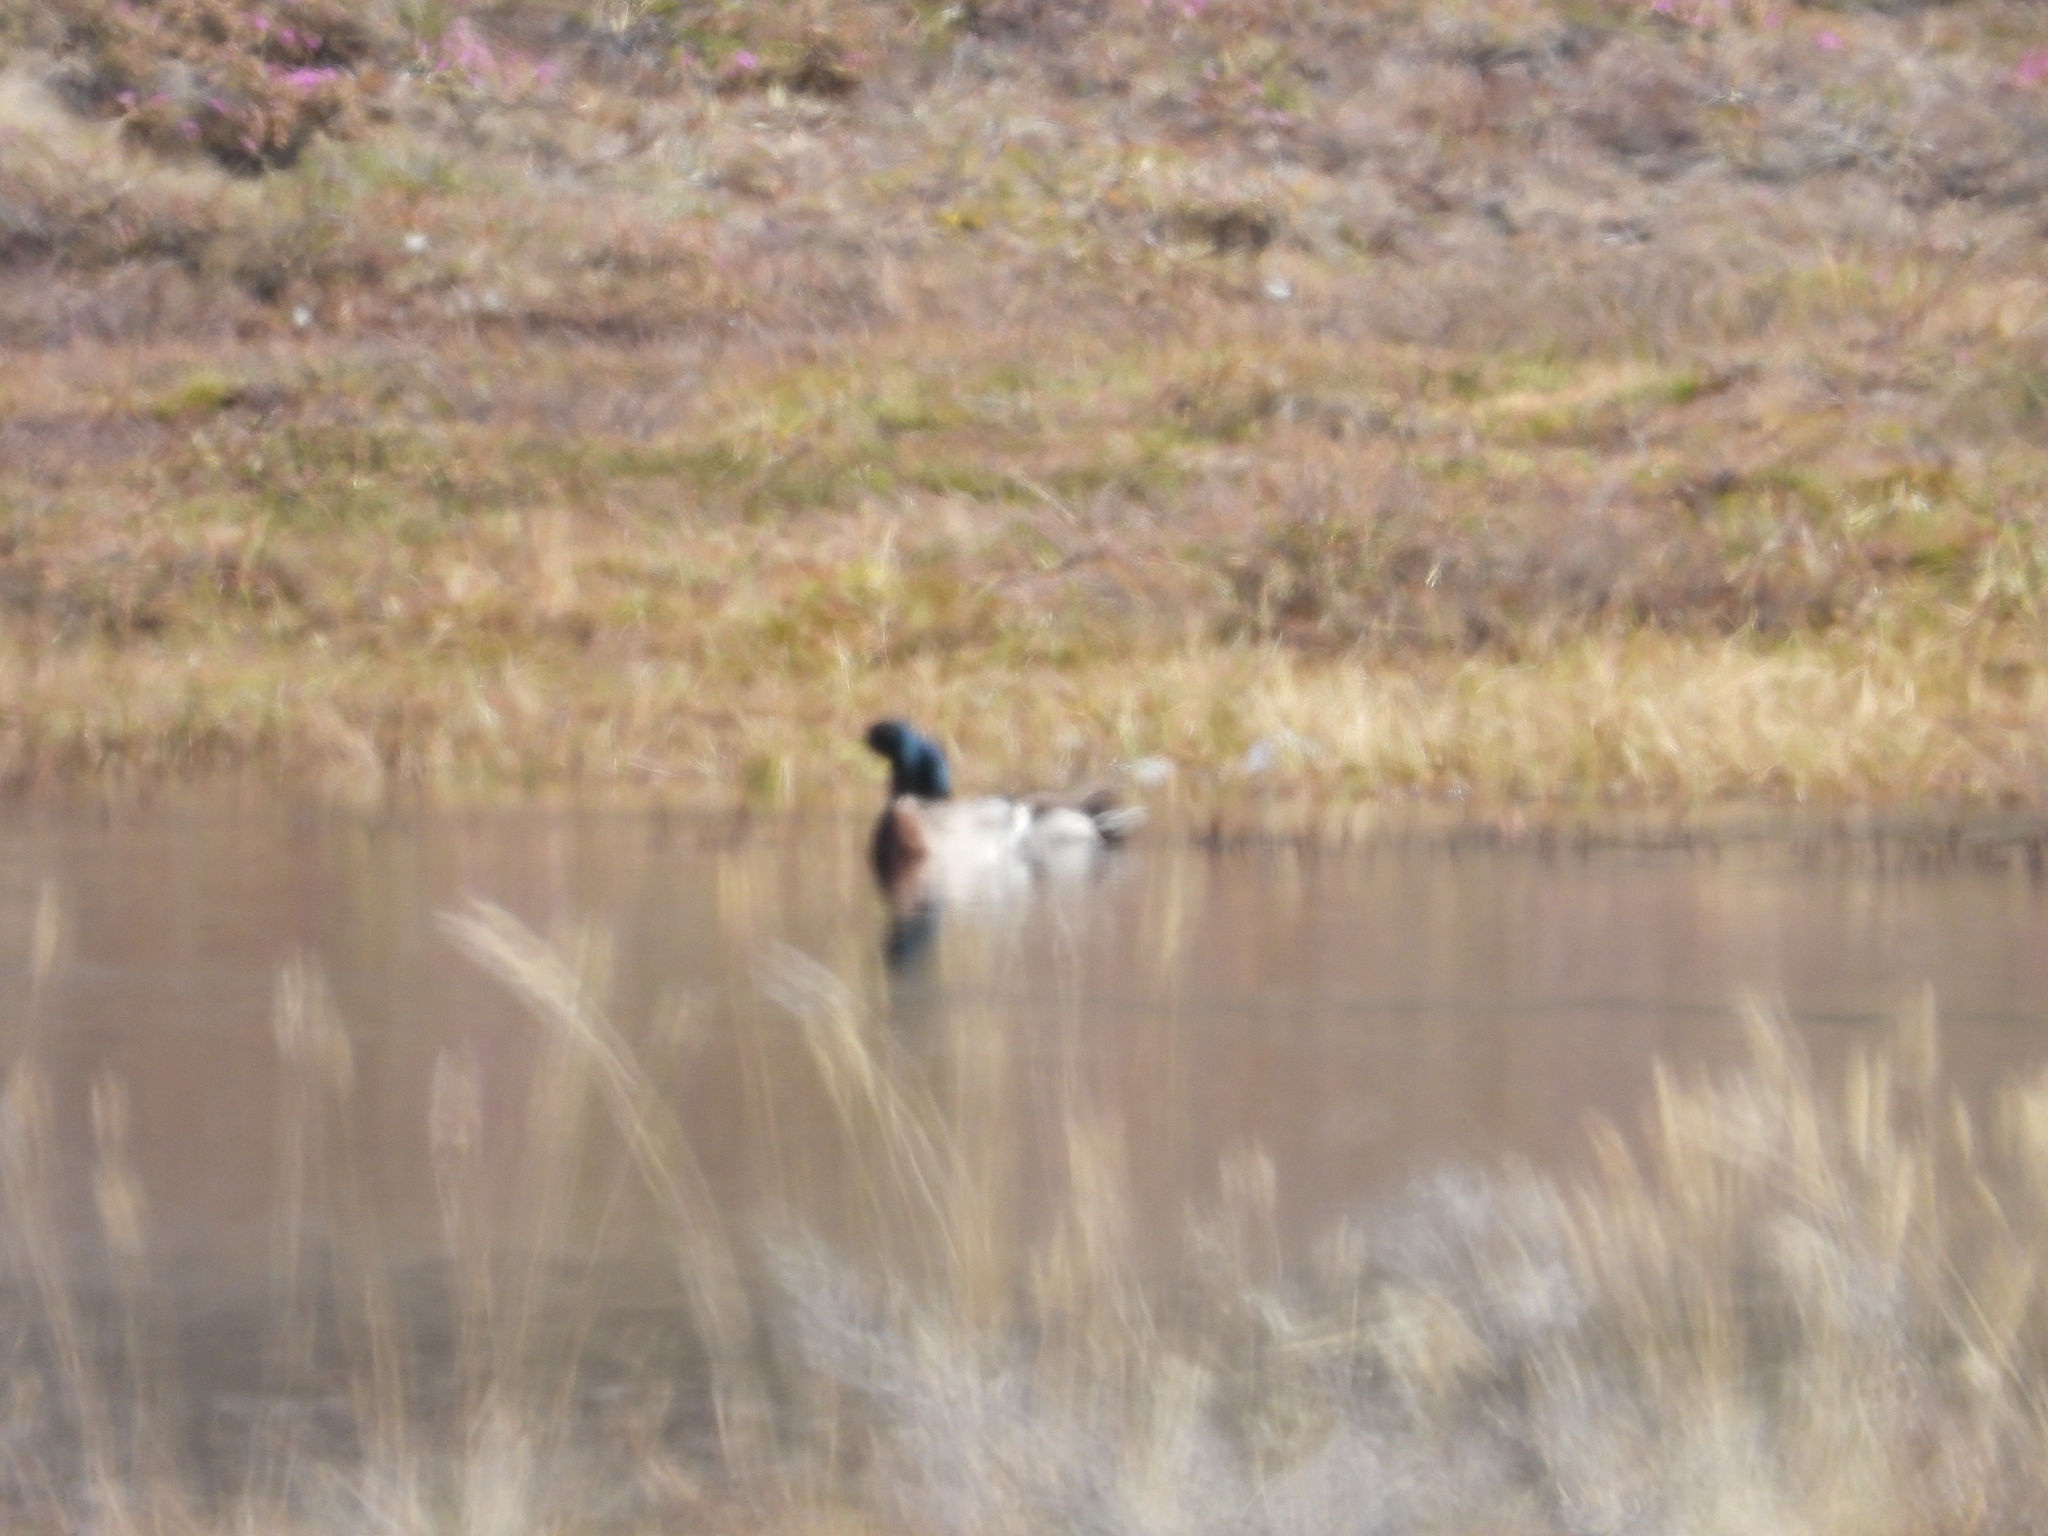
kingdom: Animalia
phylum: Chordata
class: Aves
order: Anseriformes
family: Anatidae
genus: Anas
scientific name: Anas platyrhynchos
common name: Mallard
